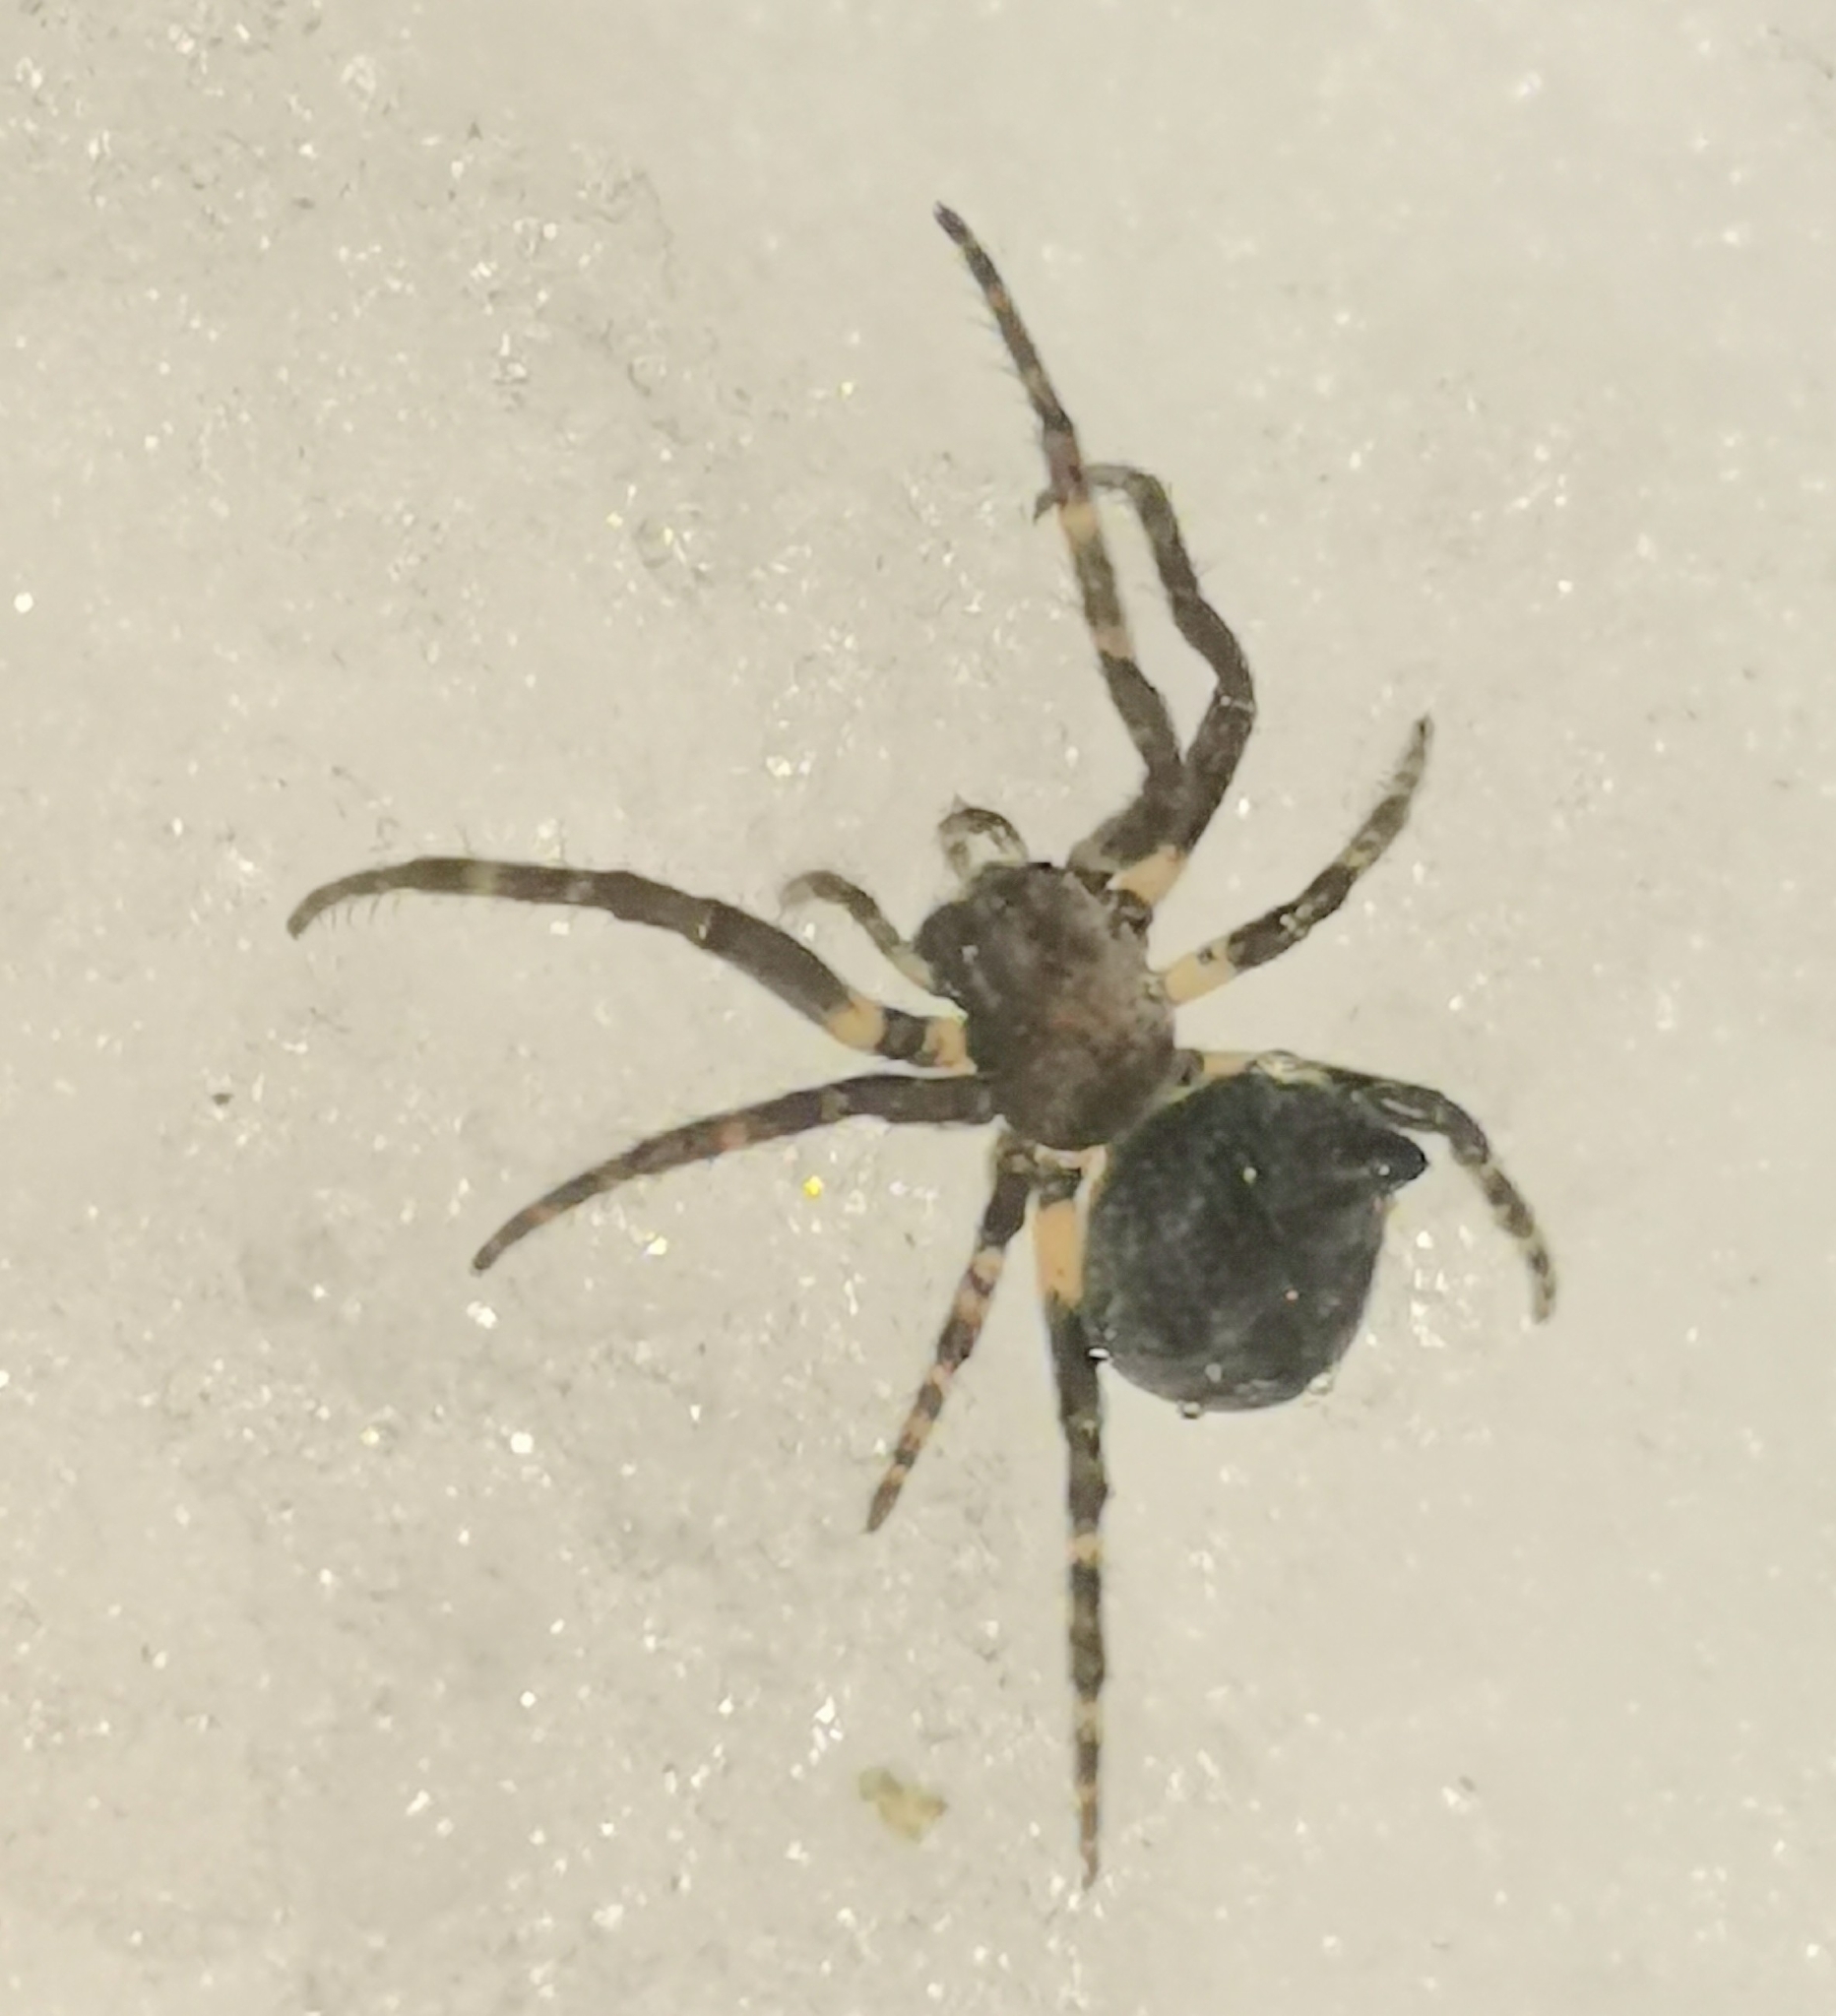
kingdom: Animalia
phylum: Arthropoda
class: Arachnida
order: Araneae
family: Araneidae
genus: Gibbaranea
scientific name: Gibbaranea omoeda
